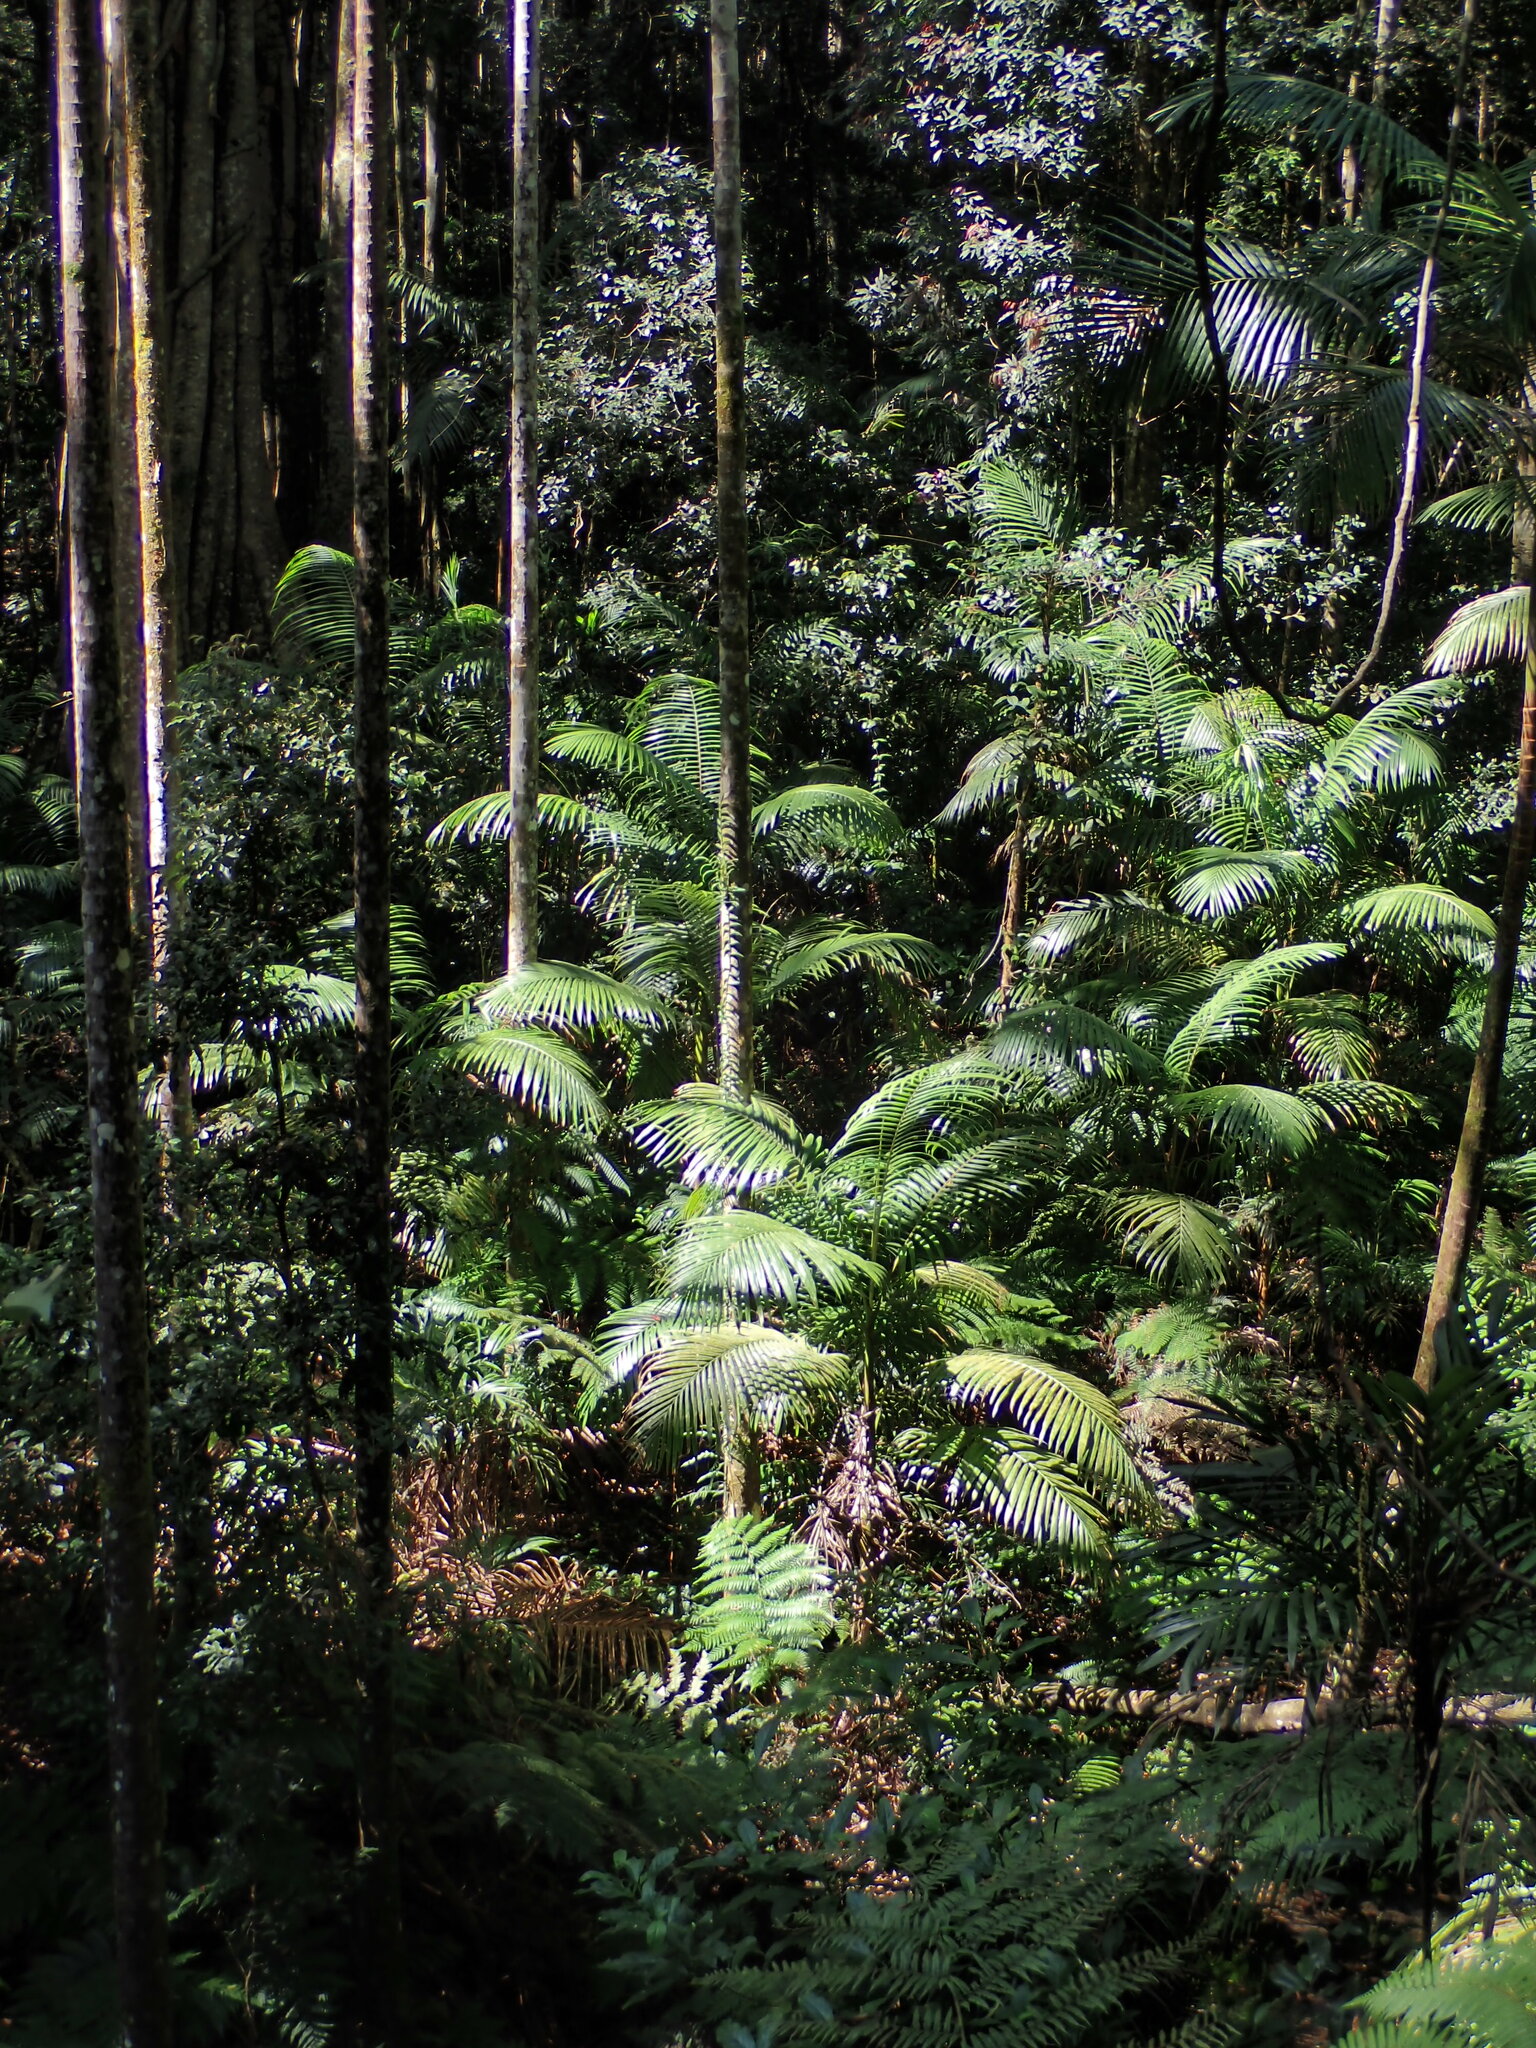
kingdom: Plantae
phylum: Tracheophyta
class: Liliopsida
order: Arecales
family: Arecaceae
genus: Archontophoenix
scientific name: Archontophoenix cunninghamiana
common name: Piccabeen bangalow palm
